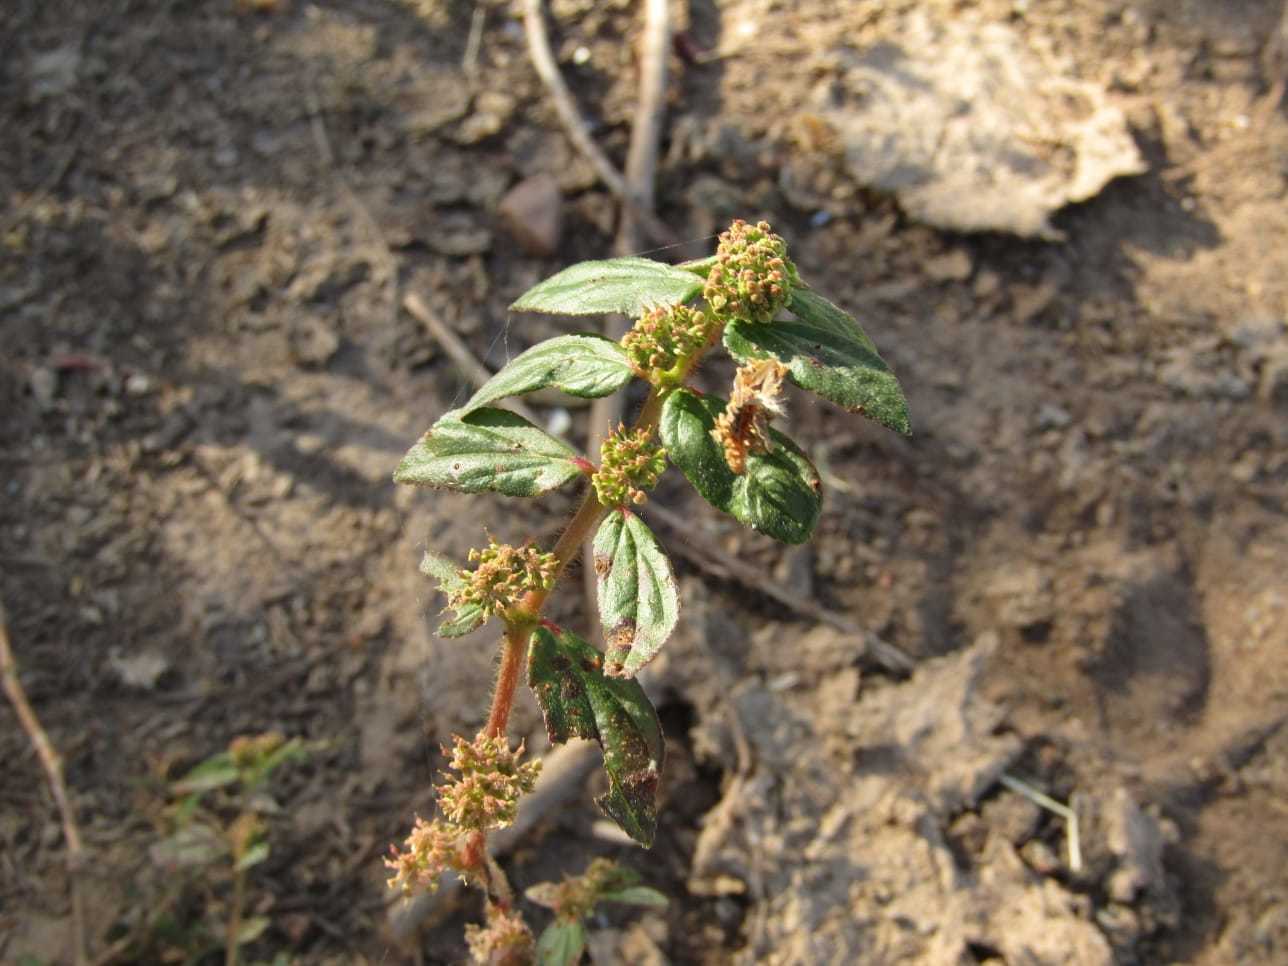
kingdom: Plantae
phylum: Tracheophyta
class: Magnoliopsida
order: Malpighiales
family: Euphorbiaceae
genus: Euphorbia
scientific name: Euphorbia hirta
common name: Pillpod sandmat
